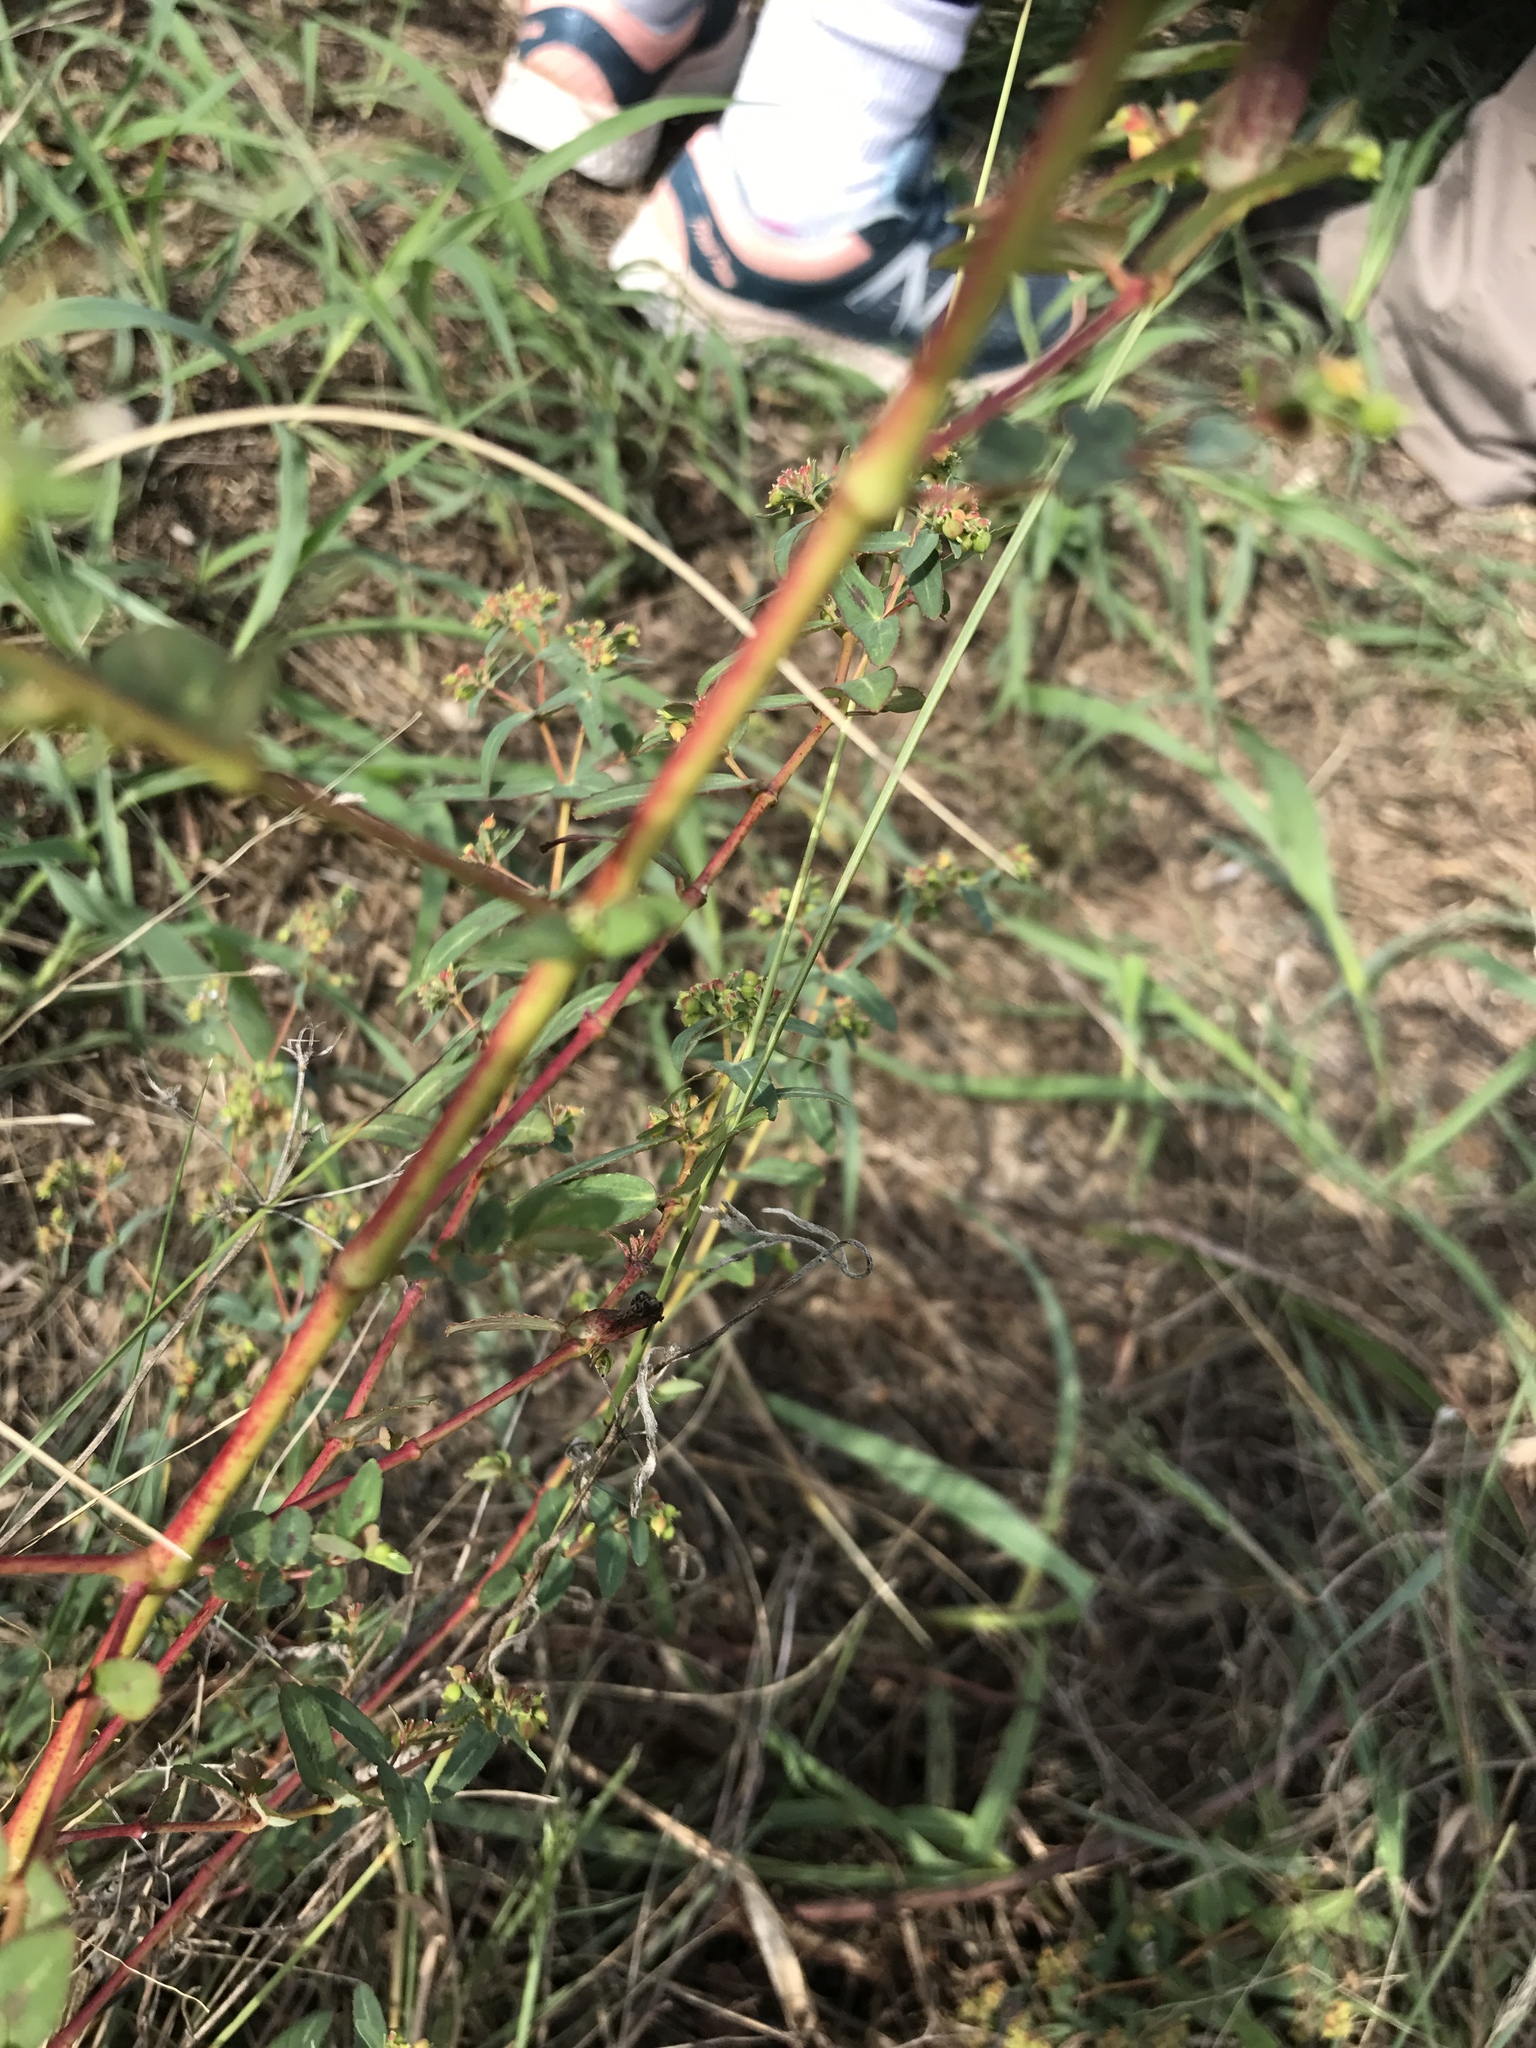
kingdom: Plantae
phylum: Tracheophyta
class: Magnoliopsida
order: Malpighiales
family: Euphorbiaceae
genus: Euphorbia
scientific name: Euphorbia nutans
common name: Eyebane
